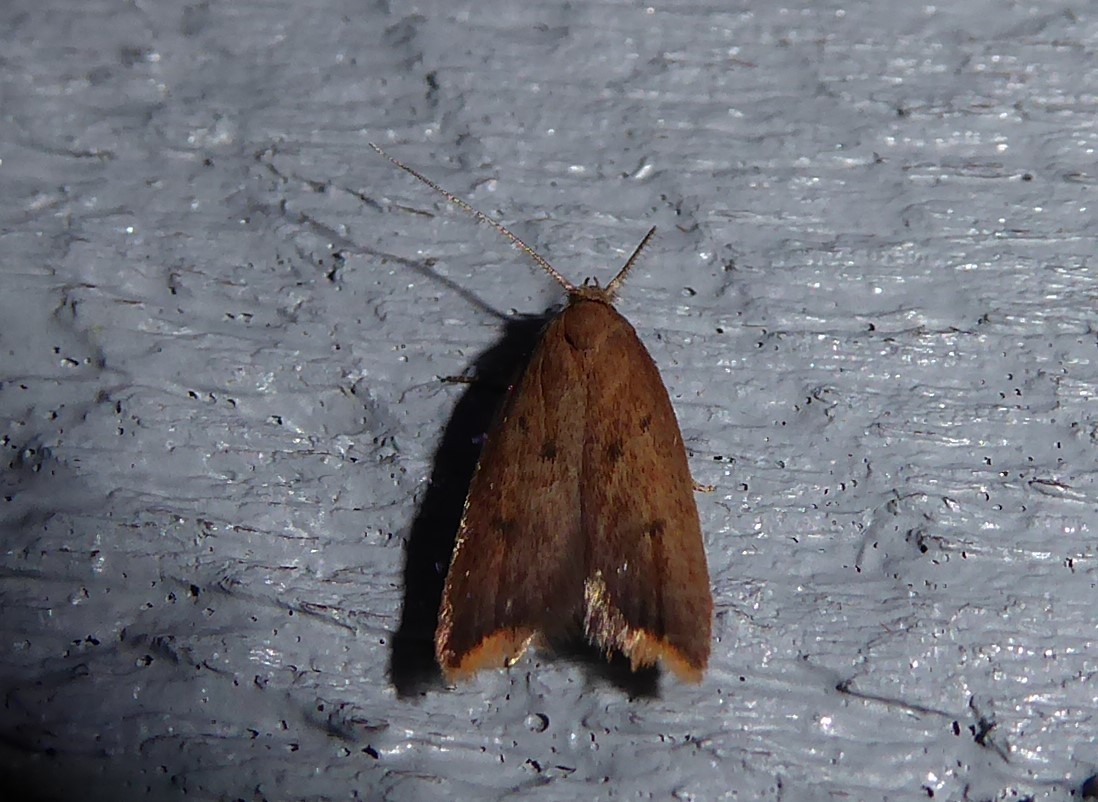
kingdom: Animalia
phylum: Arthropoda
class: Insecta
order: Lepidoptera
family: Oecophoridae
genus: Tachystola
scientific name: Tachystola acroxantha
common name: Ruddy streak
